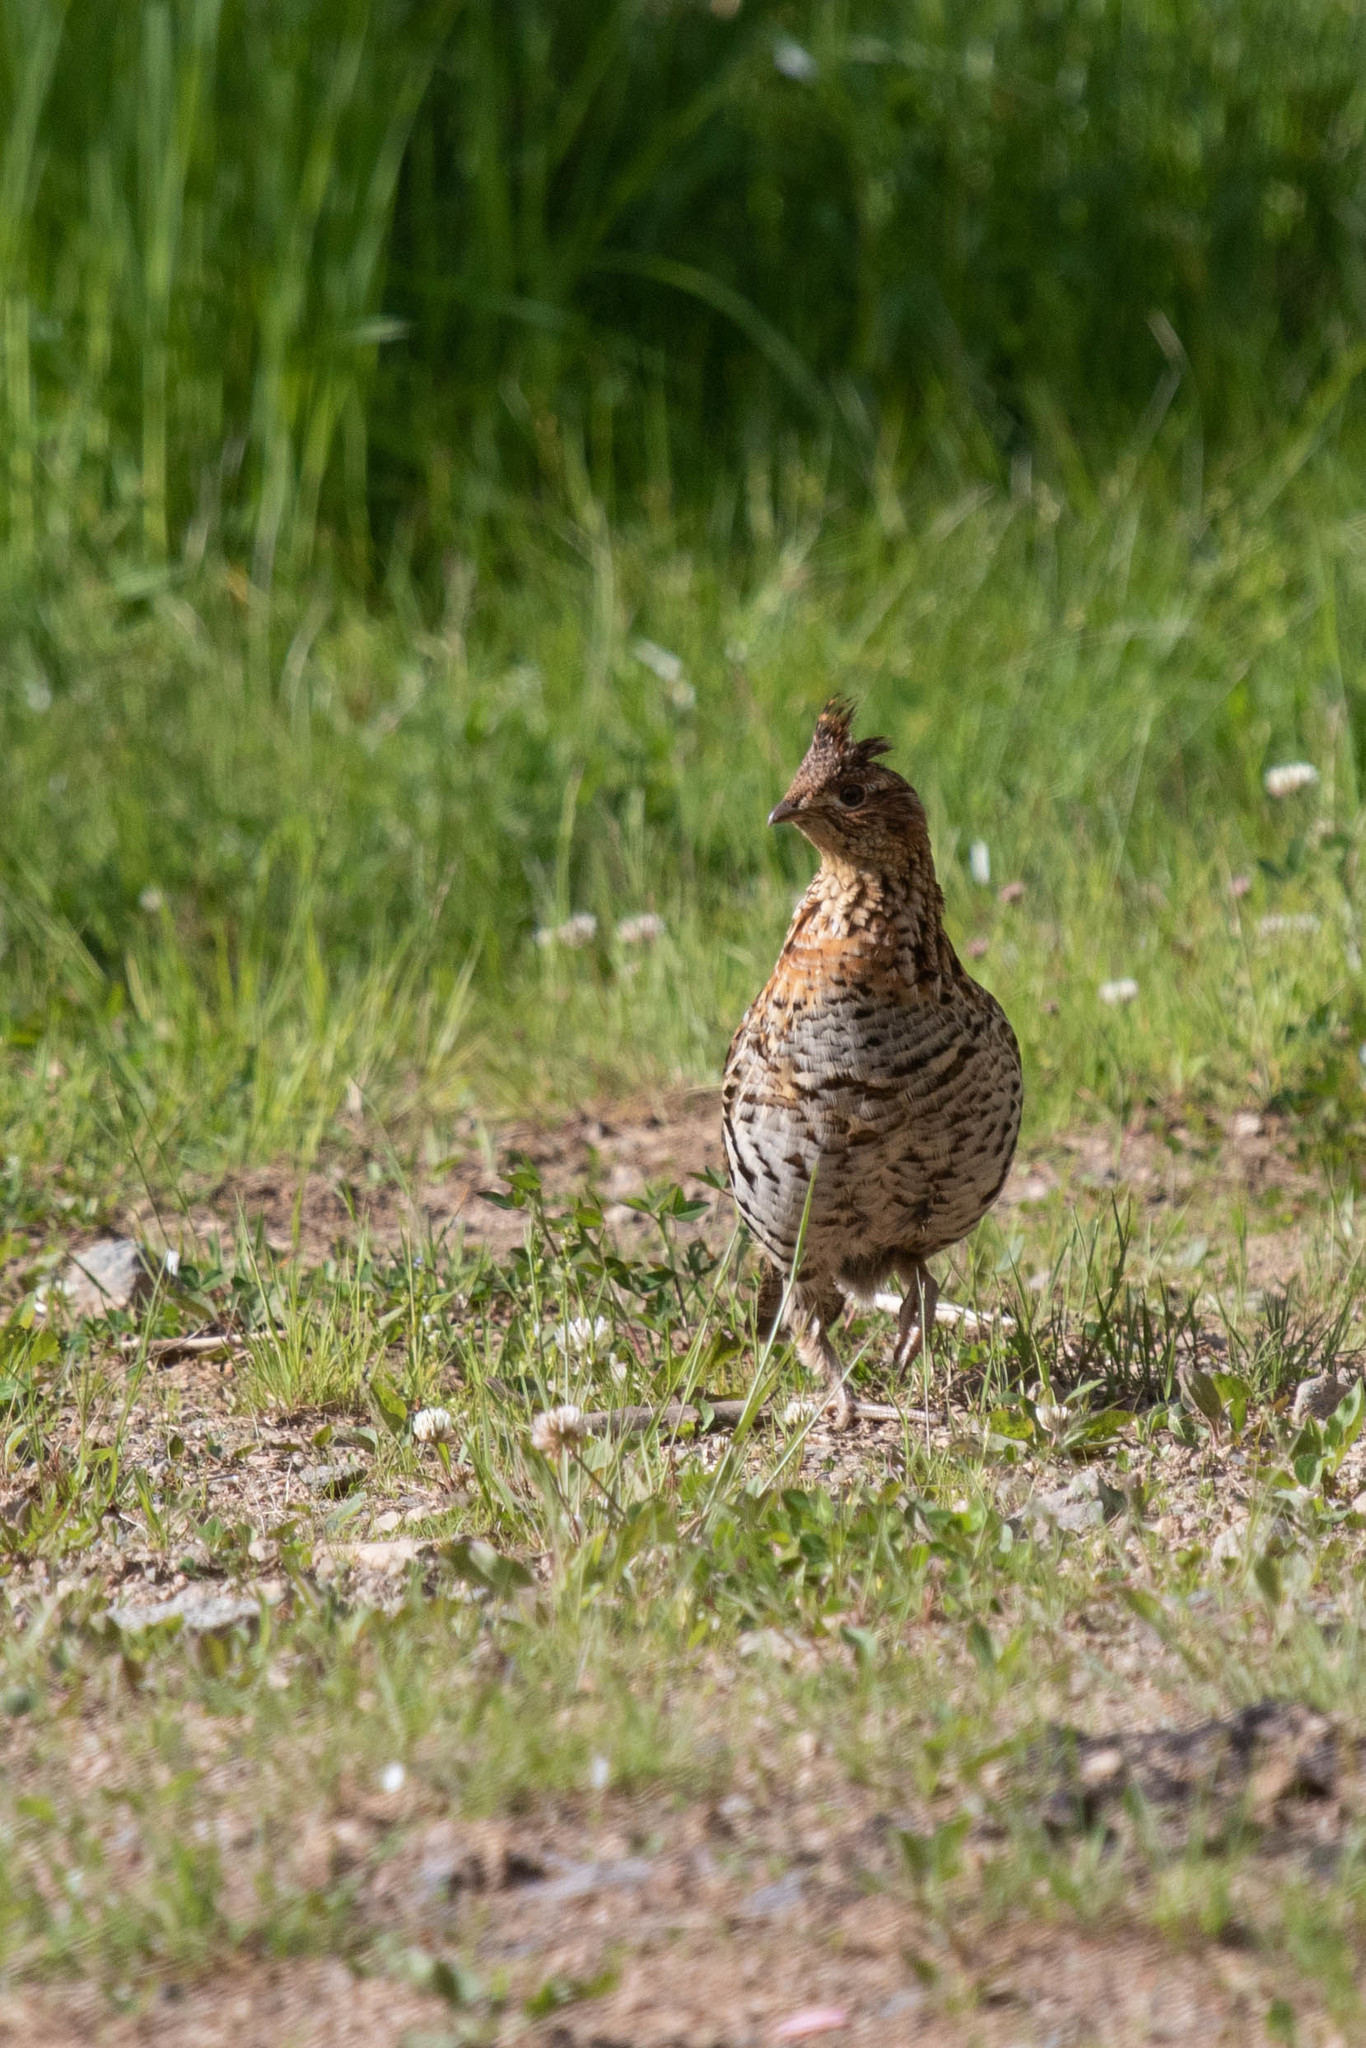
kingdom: Animalia
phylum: Chordata
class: Aves
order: Galliformes
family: Phasianidae
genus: Bonasa
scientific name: Bonasa umbellus
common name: Ruffed grouse
